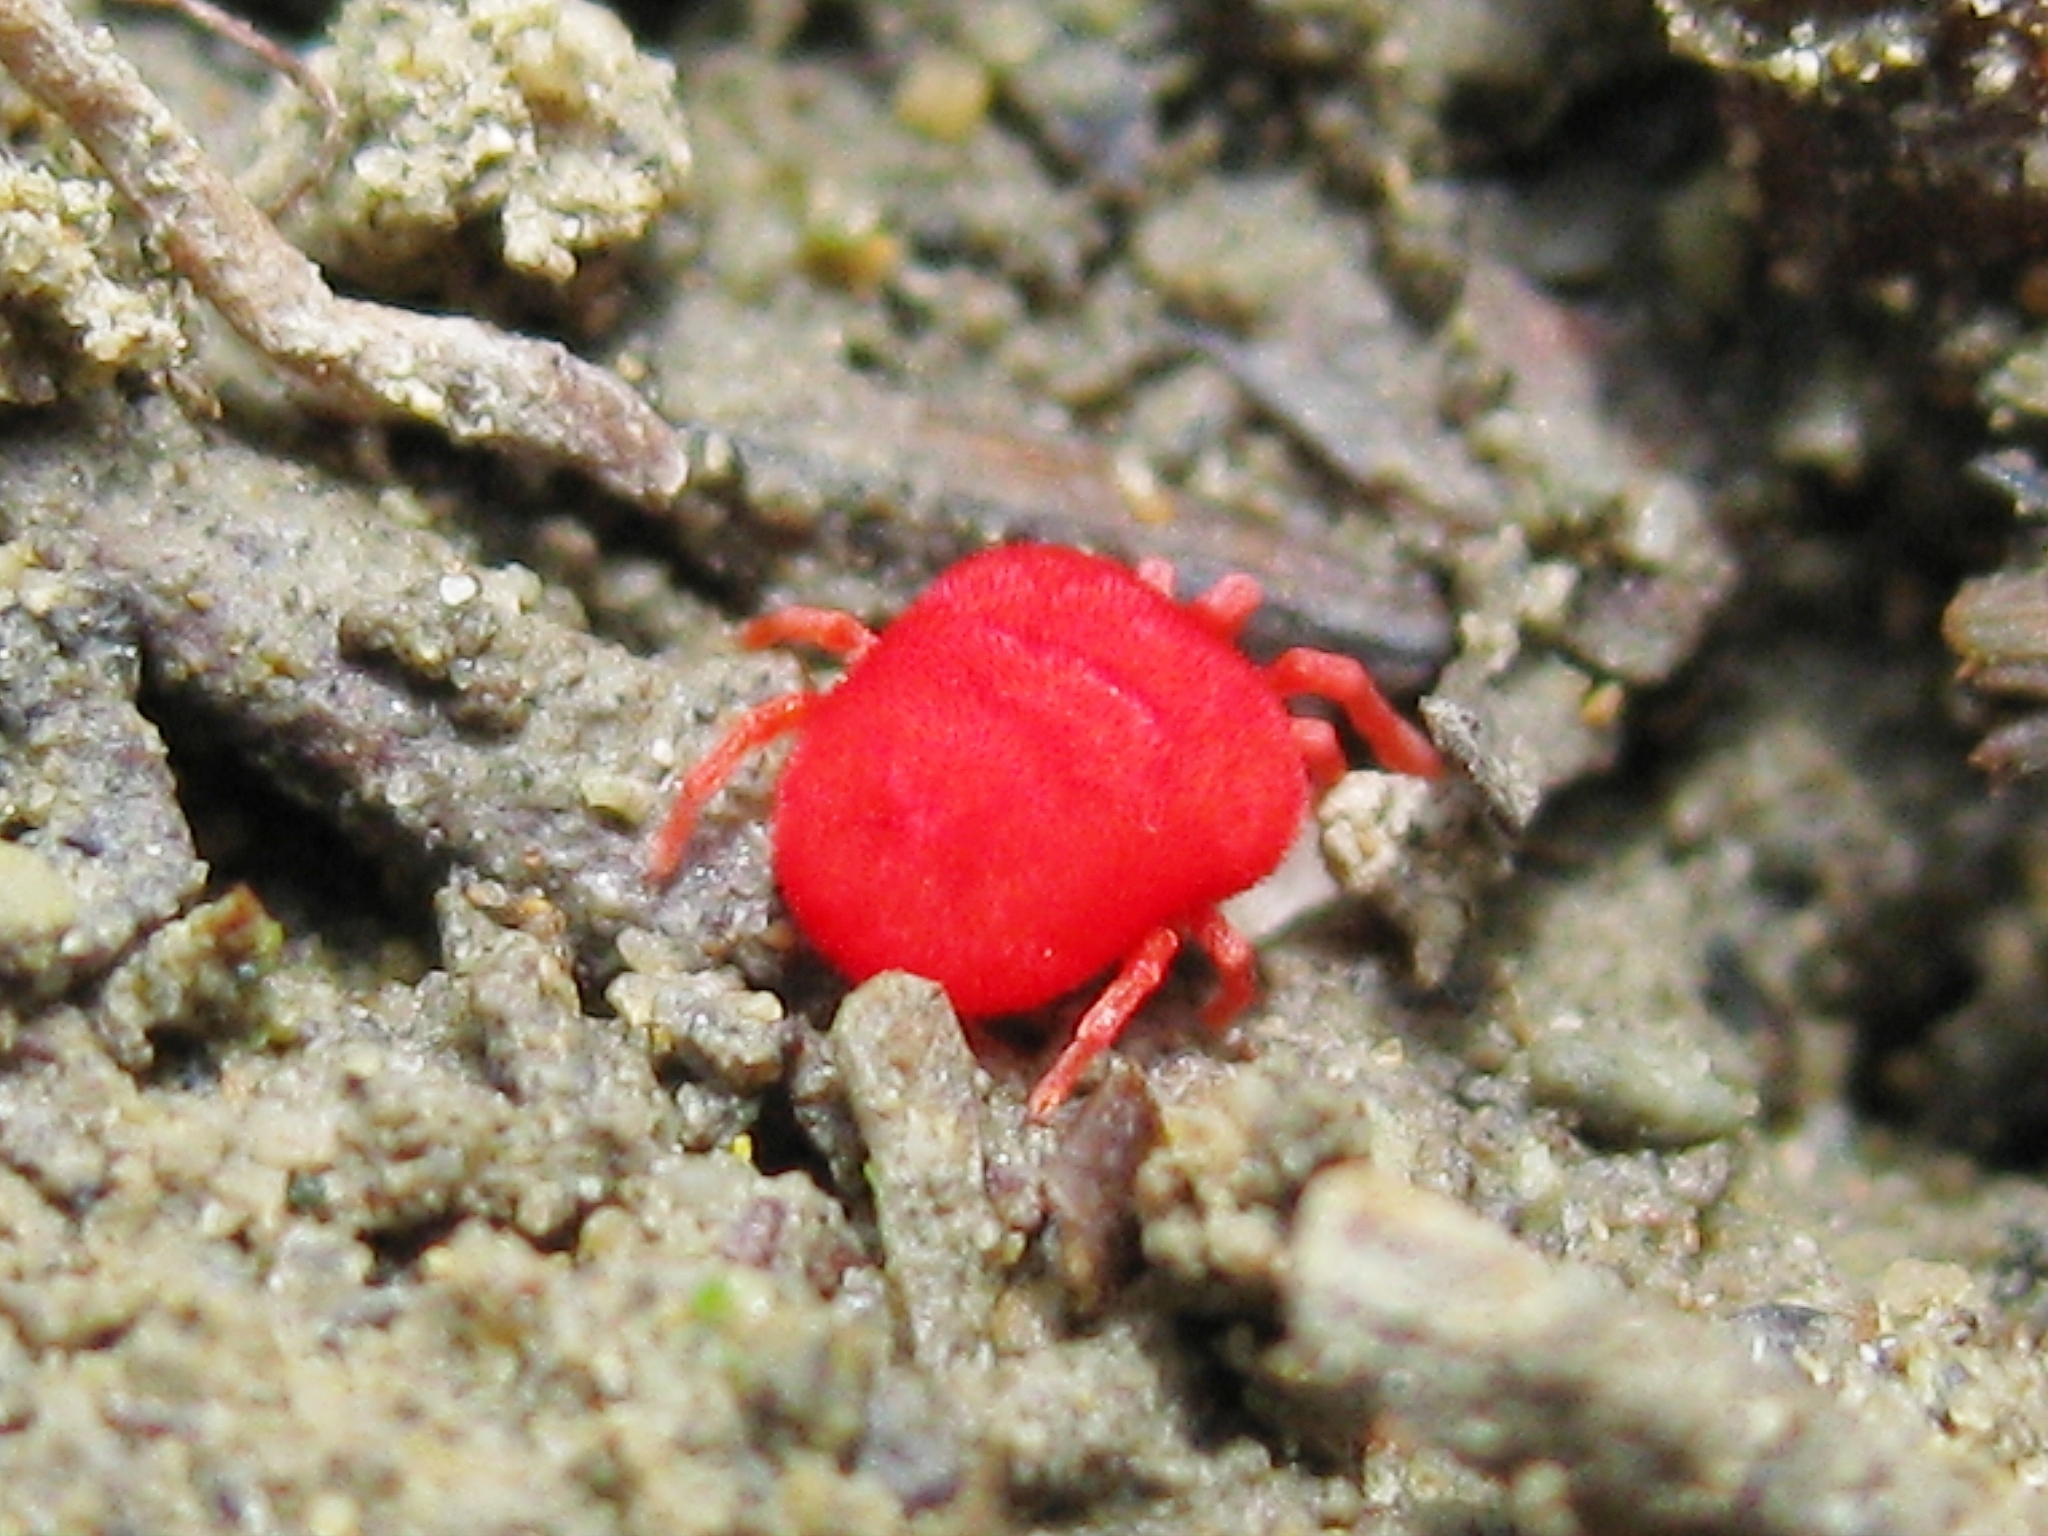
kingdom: Animalia
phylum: Arthropoda
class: Arachnida
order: Trombidiformes
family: Trombidiidae
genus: Trombidium
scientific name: Trombidium
